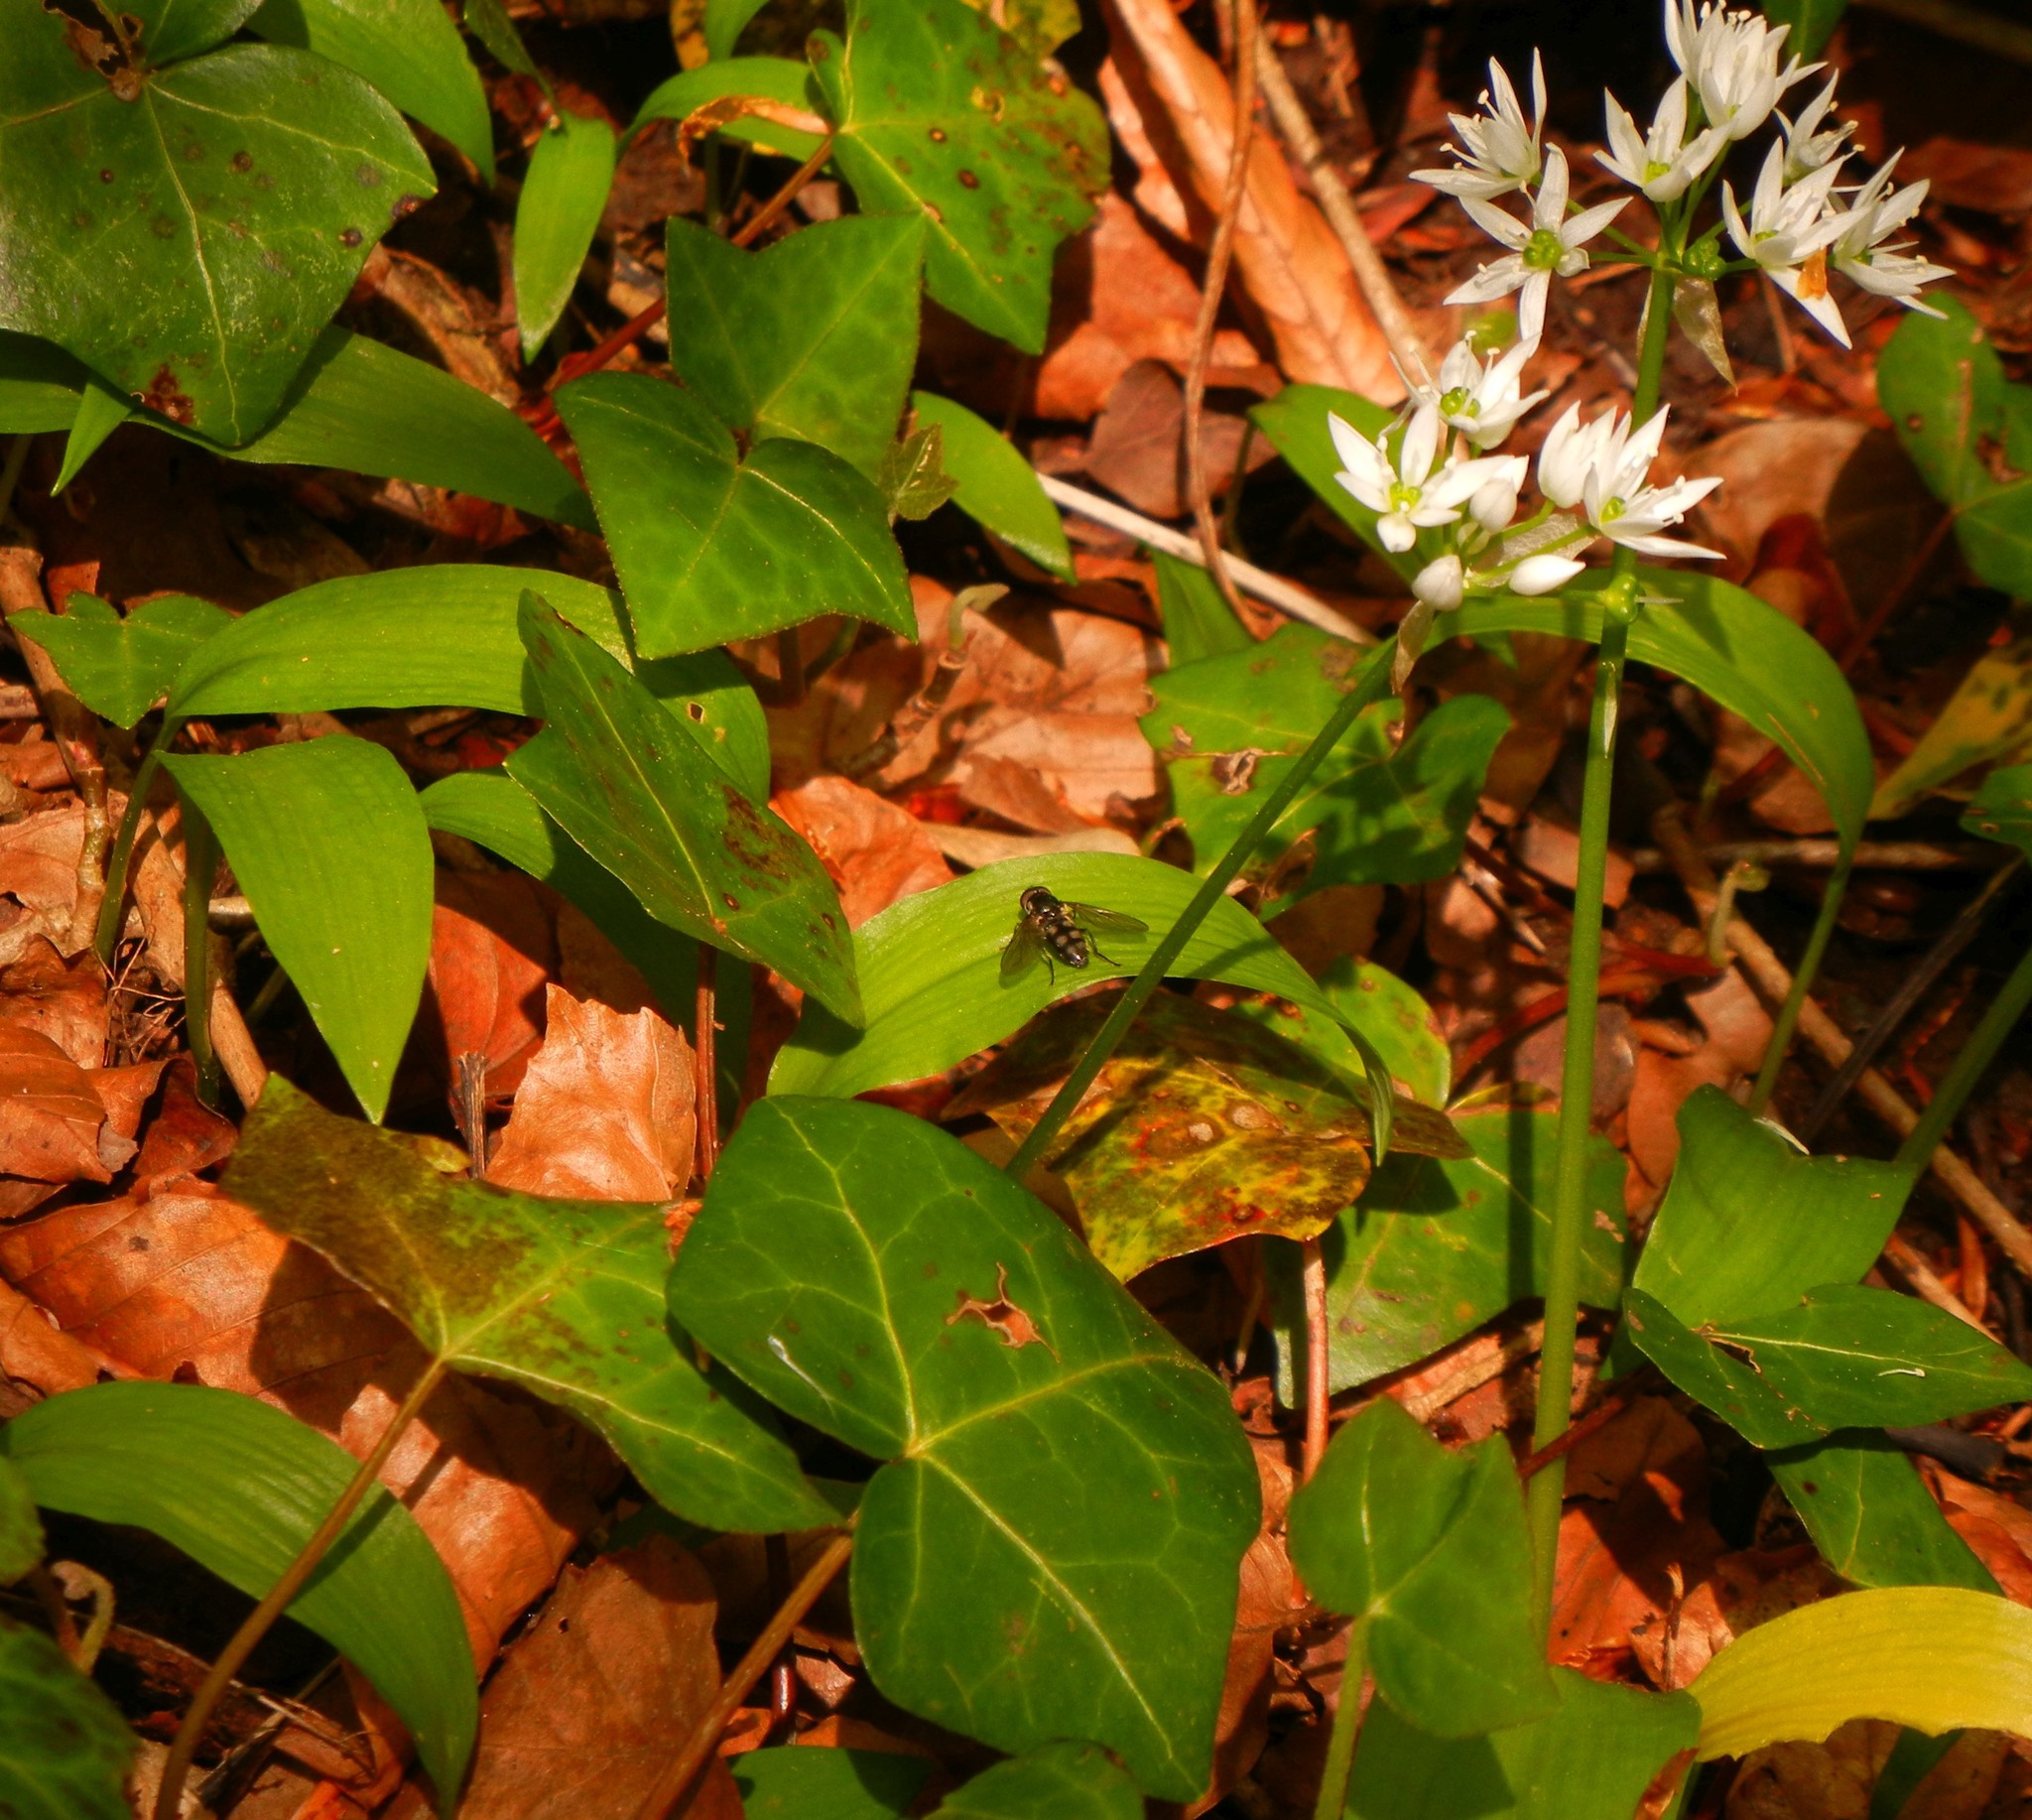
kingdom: Plantae
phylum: Tracheophyta
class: Liliopsida
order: Asparagales
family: Amaryllidaceae
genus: Allium
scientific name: Allium ursinum
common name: Ramsons
